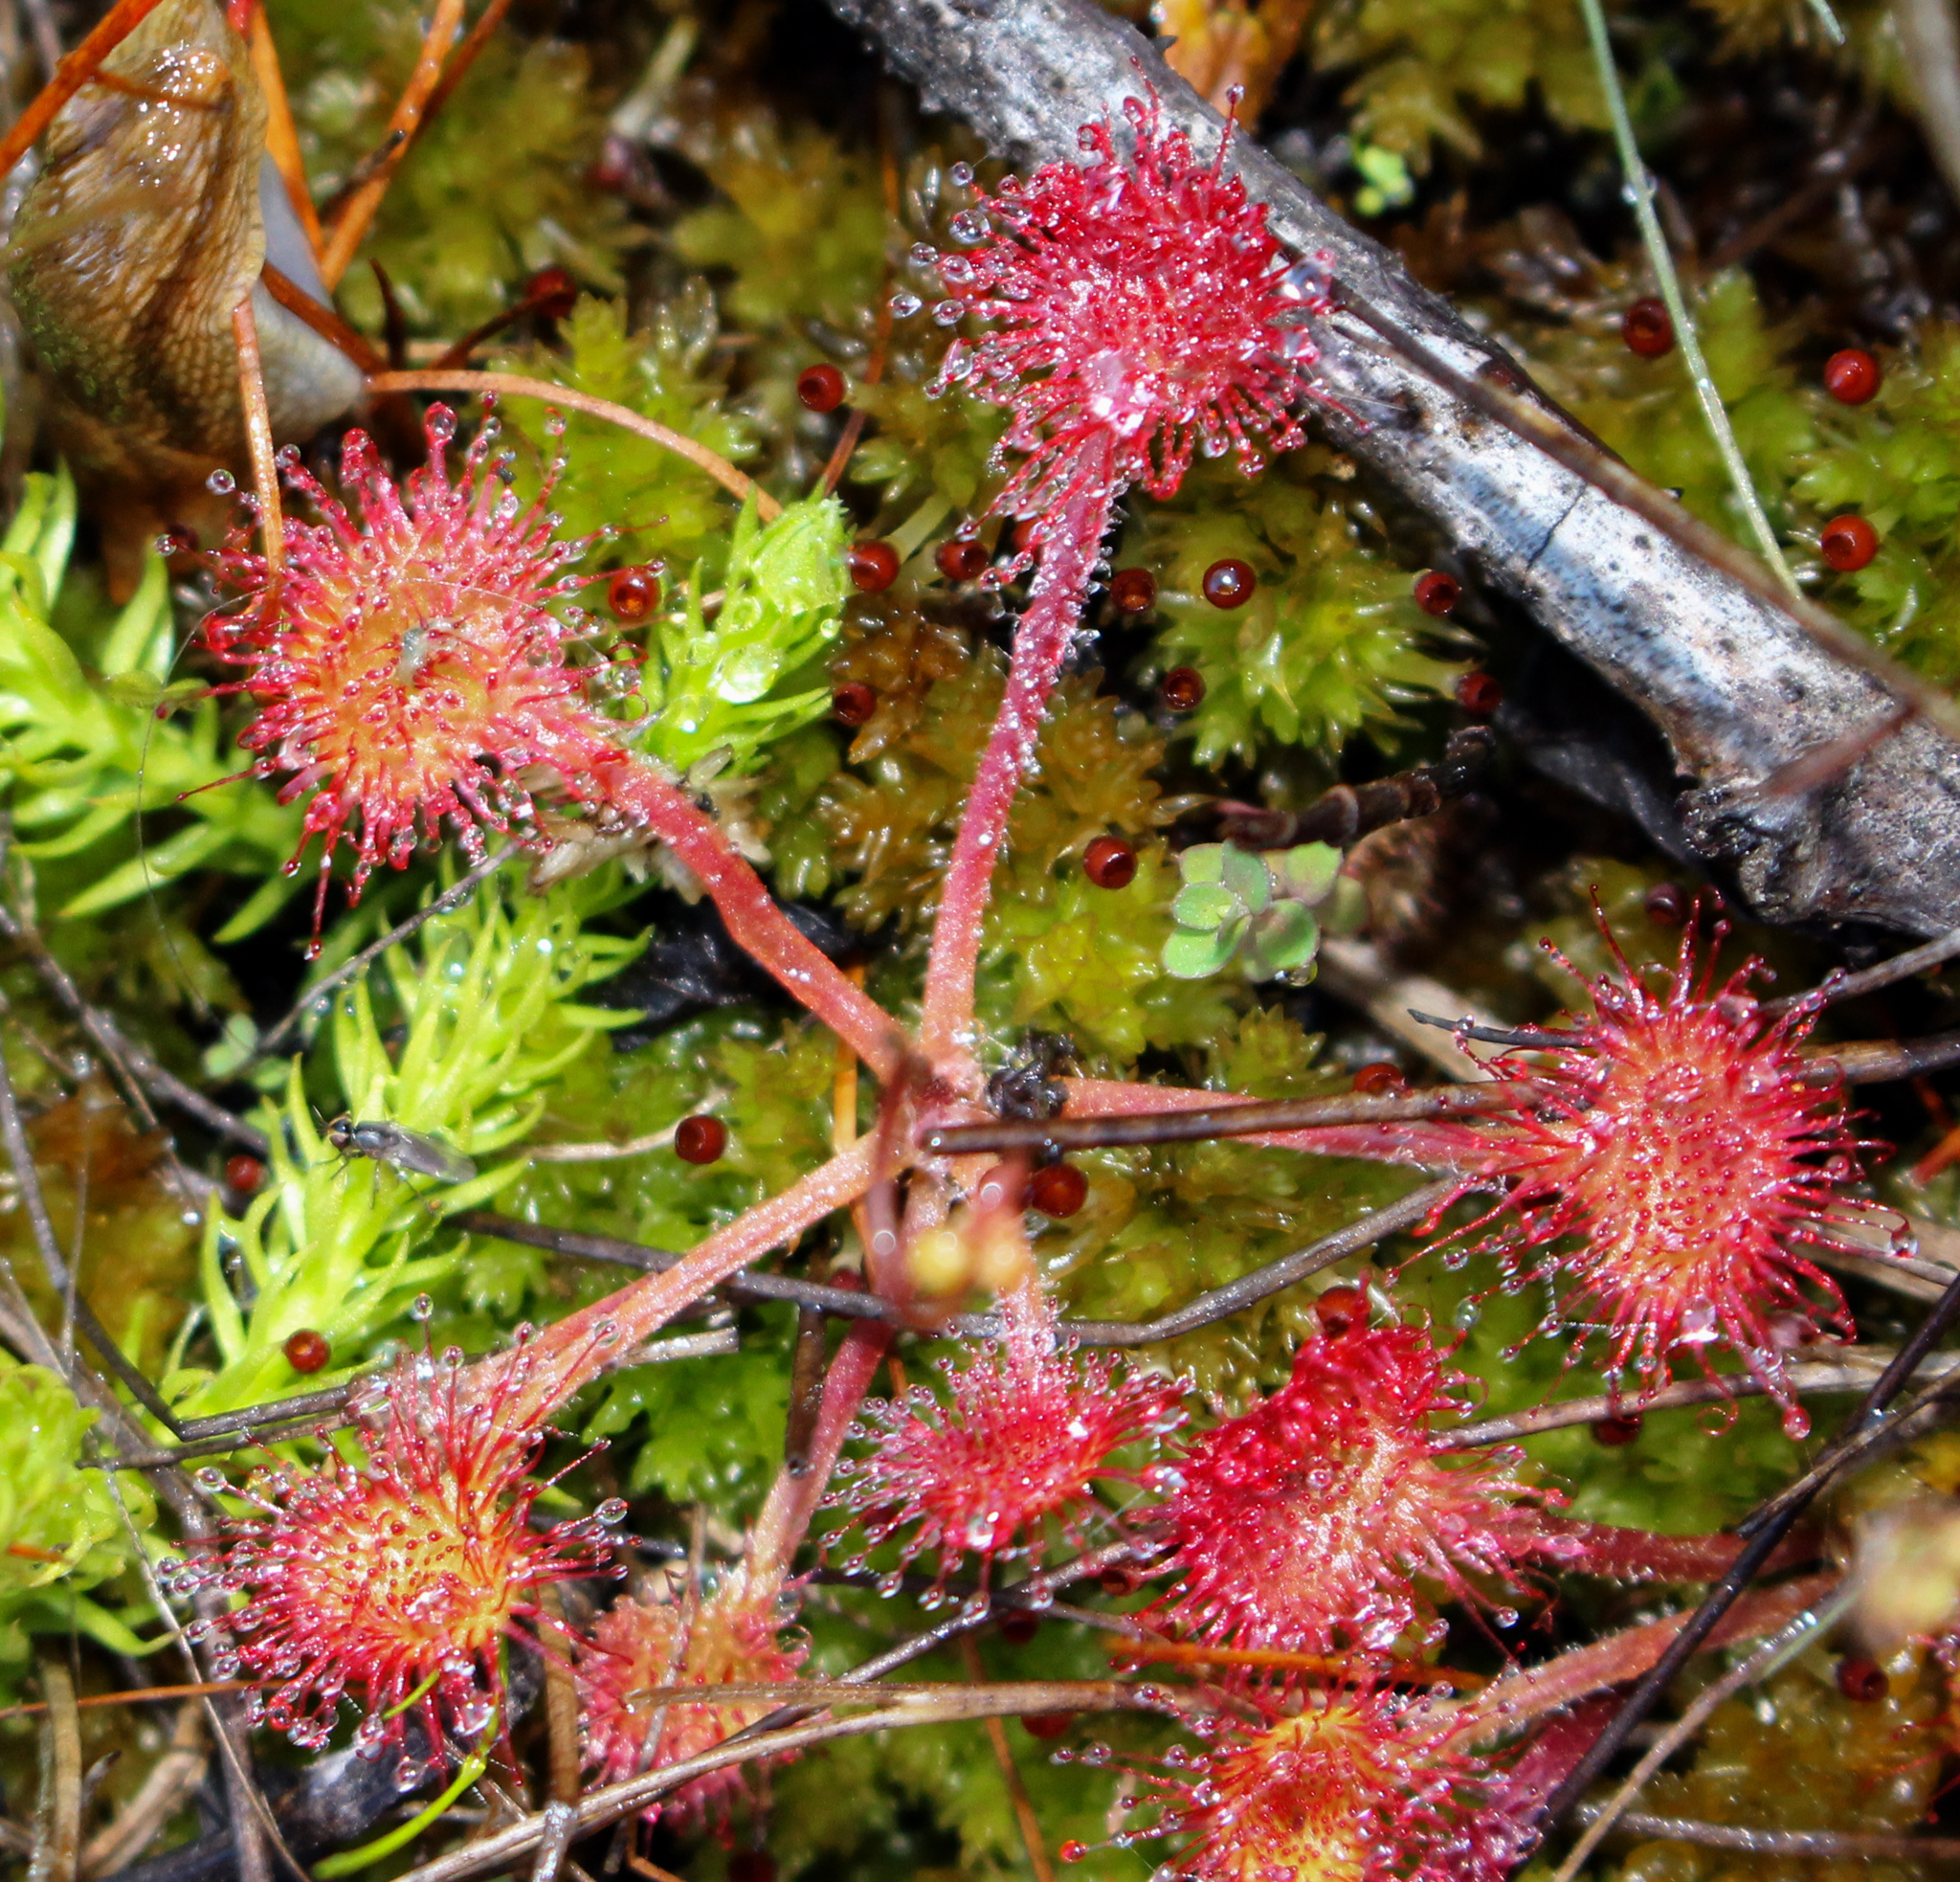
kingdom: Plantae
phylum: Tracheophyta
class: Magnoliopsida
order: Caryophyllales
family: Droseraceae
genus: Drosera
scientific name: Drosera rotundifolia
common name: Round-leaved sundew
